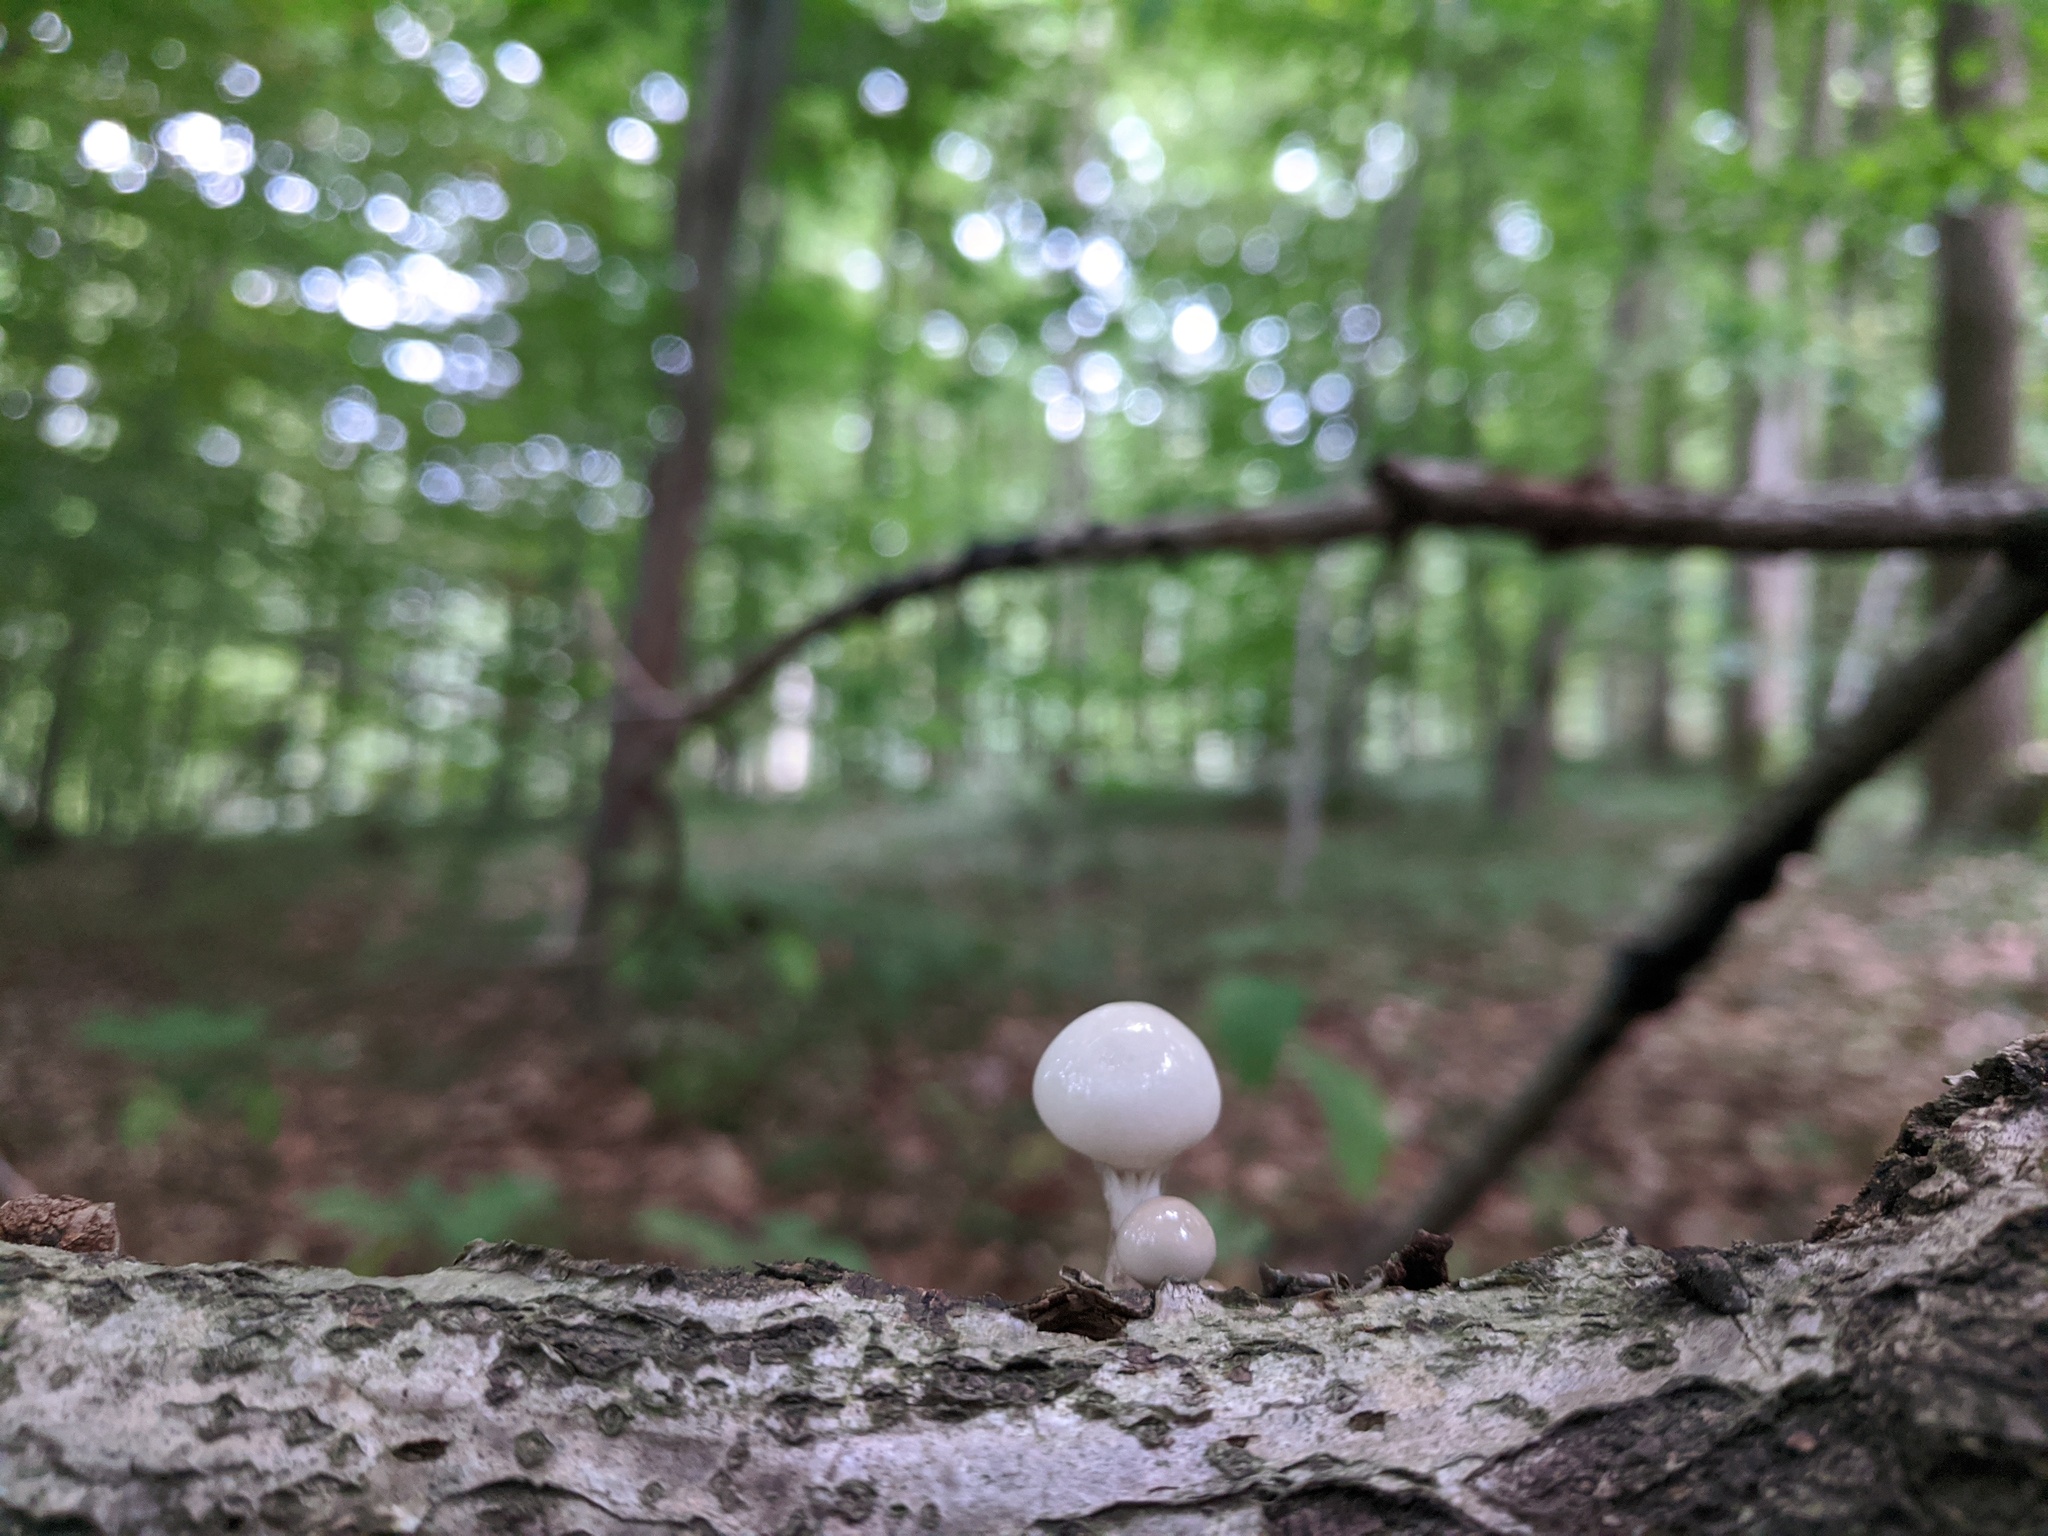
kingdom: Fungi
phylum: Basidiomycota
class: Agaricomycetes
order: Agaricales
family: Physalacriaceae
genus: Mucidula
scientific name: Mucidula mucida
